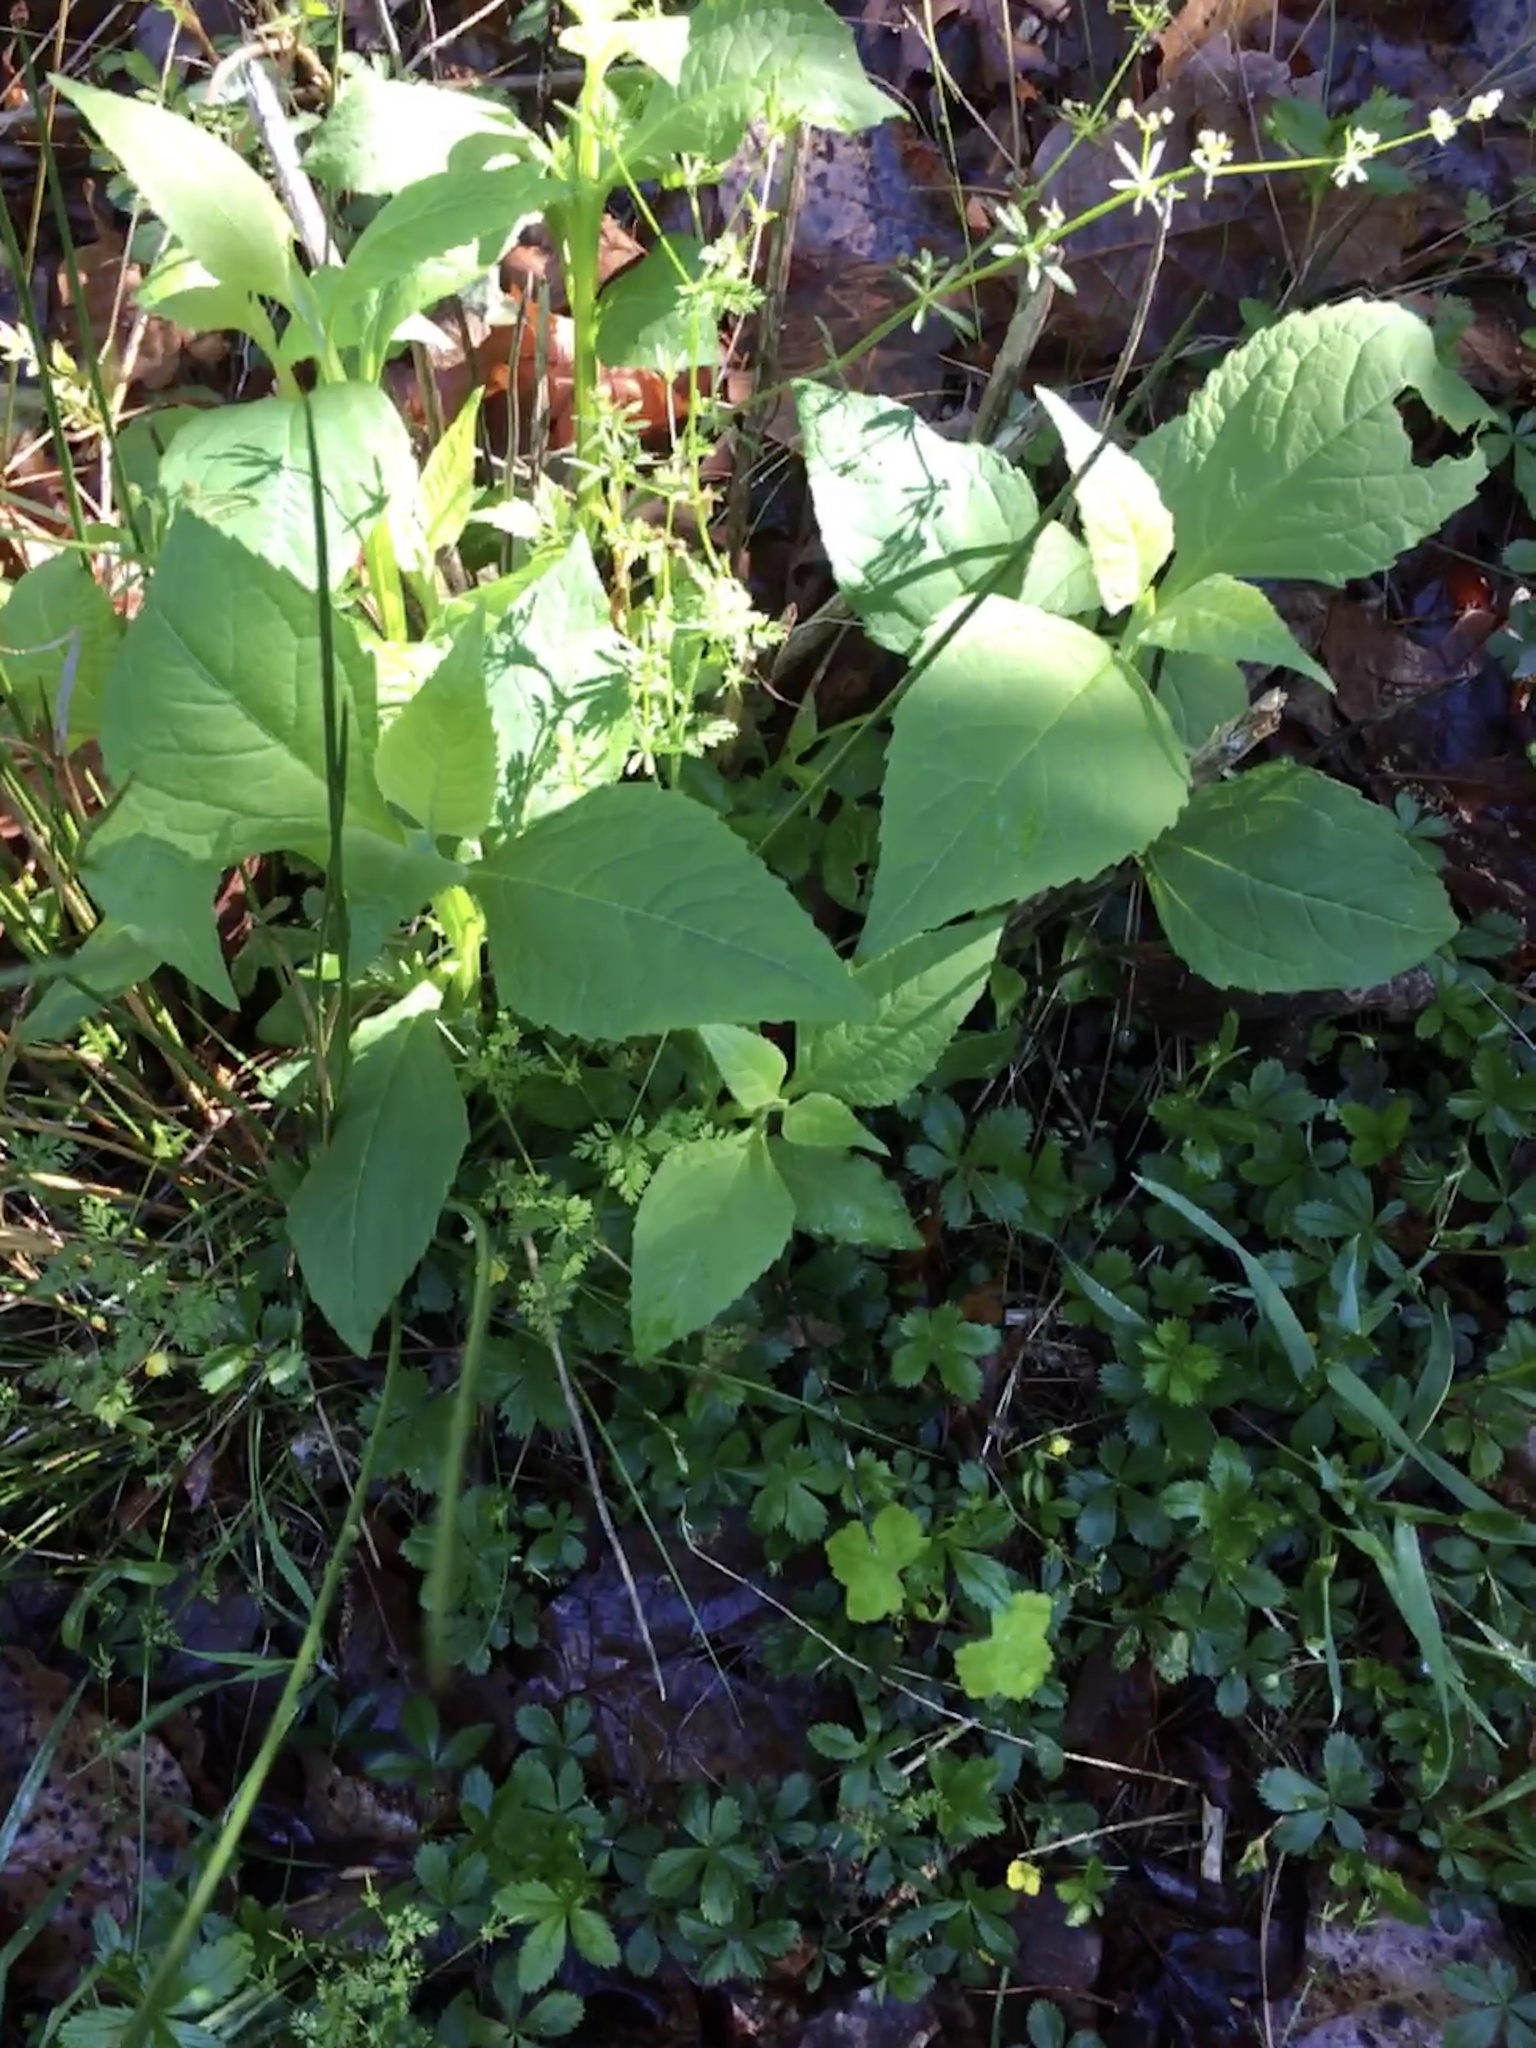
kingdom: Plantae
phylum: Tracheophyta
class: Magnoliopsida
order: Asterales
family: Asteraceae
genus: Verbesina
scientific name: Verbesina occidentalis
